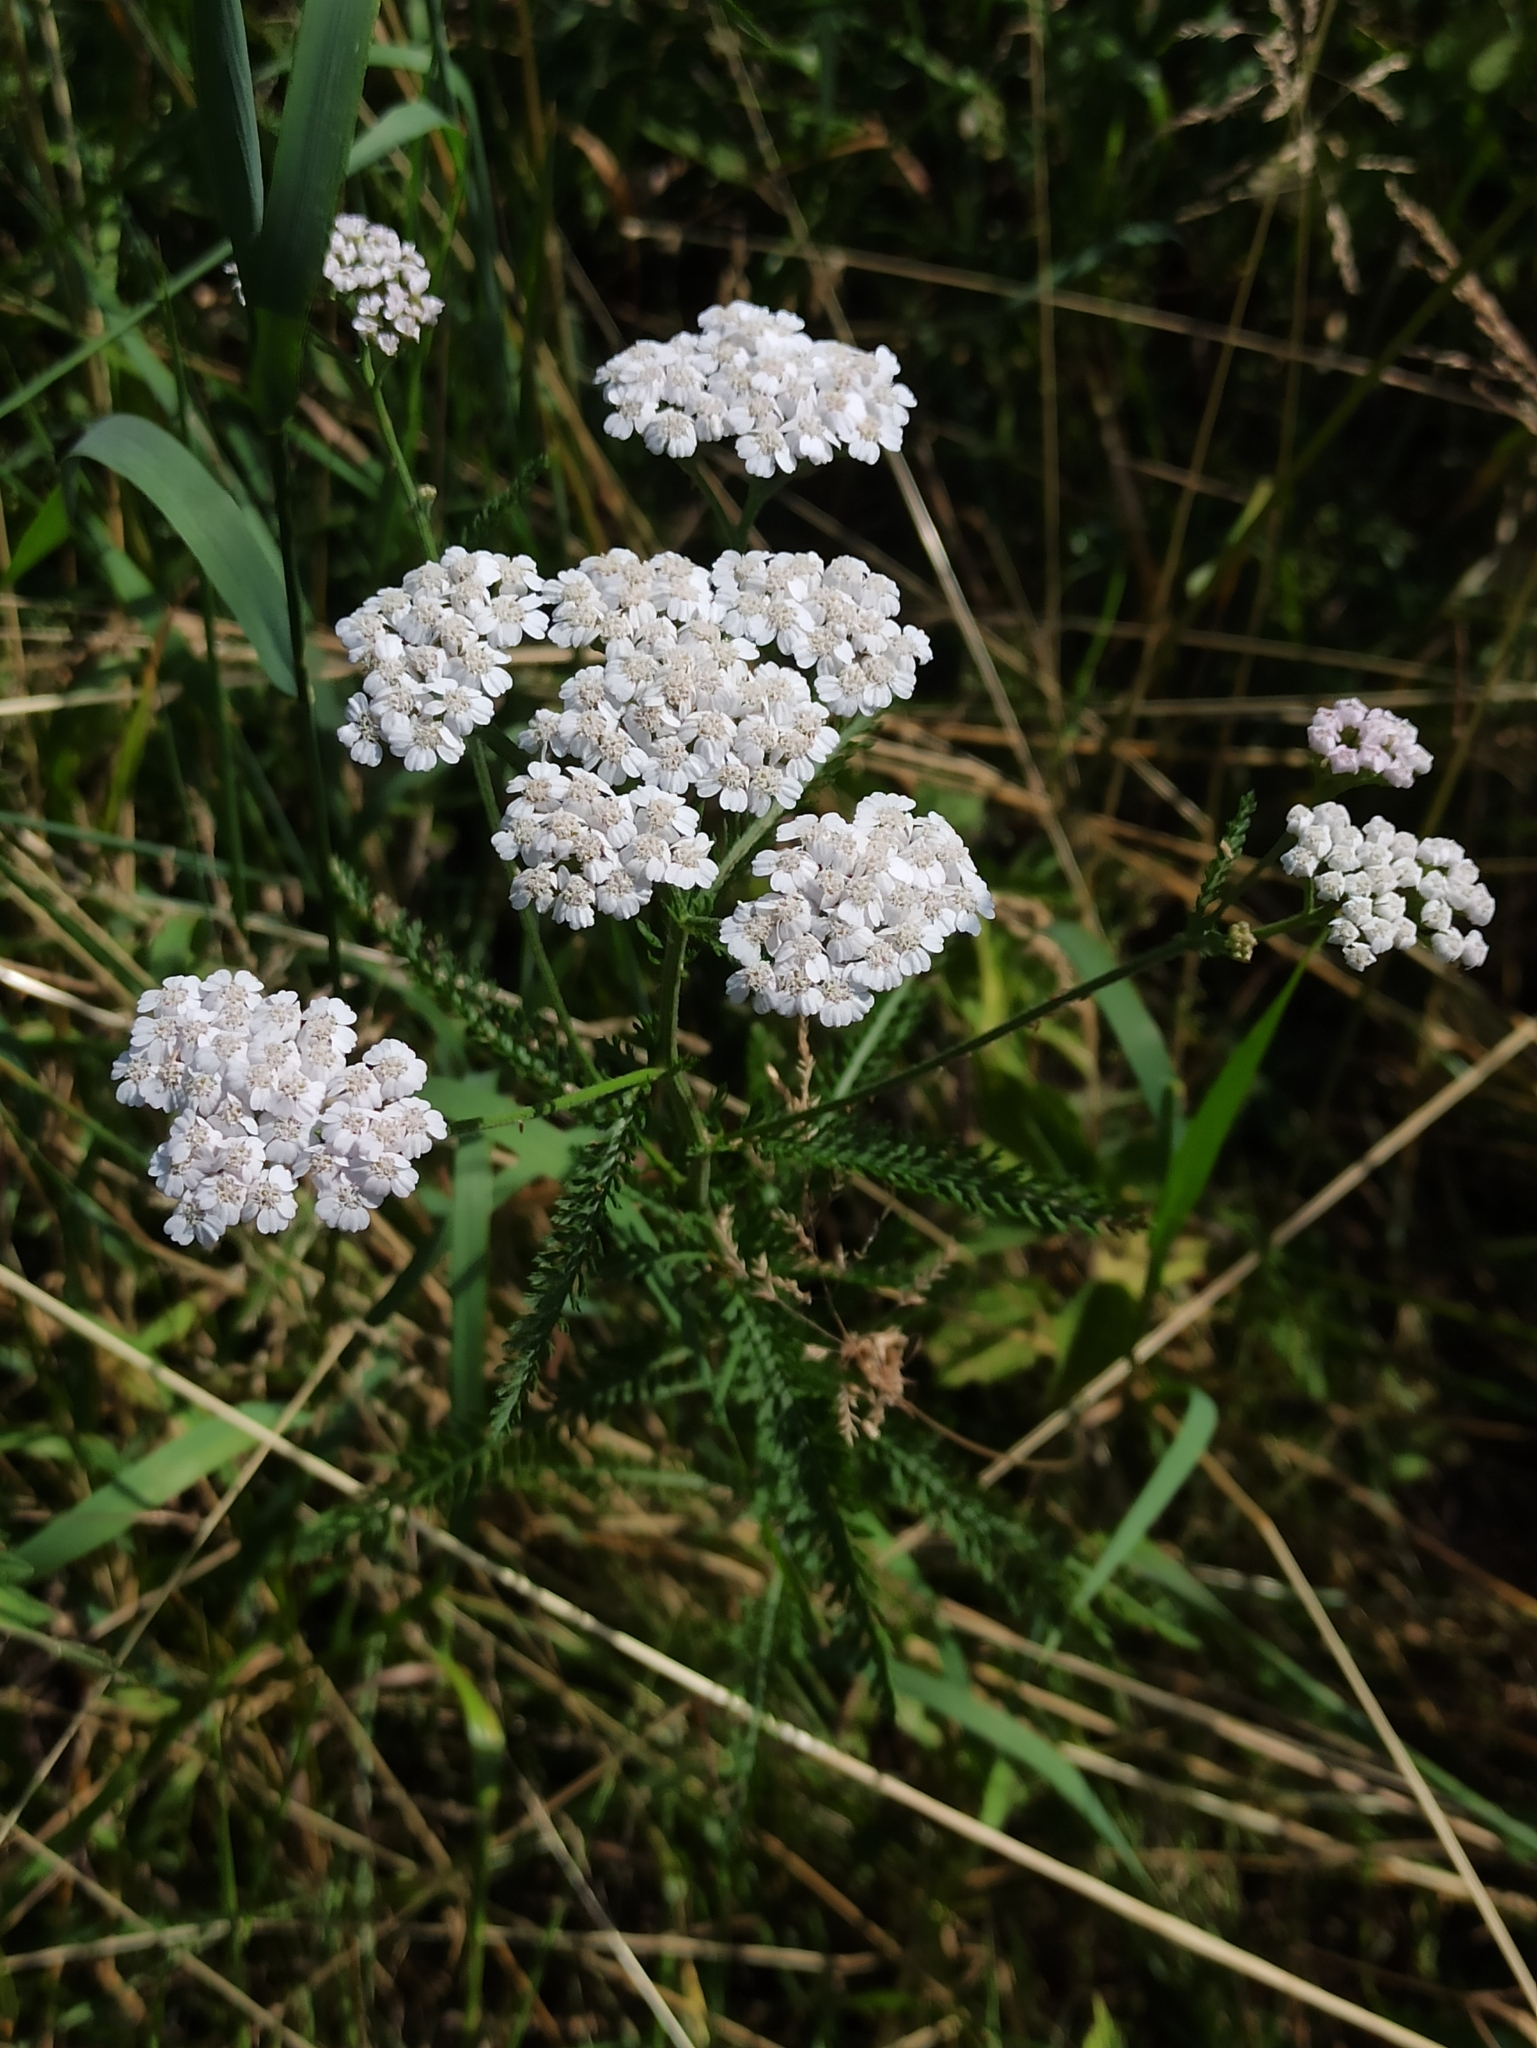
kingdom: Plantae
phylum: Tracheophyta
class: Magnoliopsida
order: Asterales
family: Asteraceae
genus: Achillea
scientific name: Achillea millefolium
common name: Yarrow
